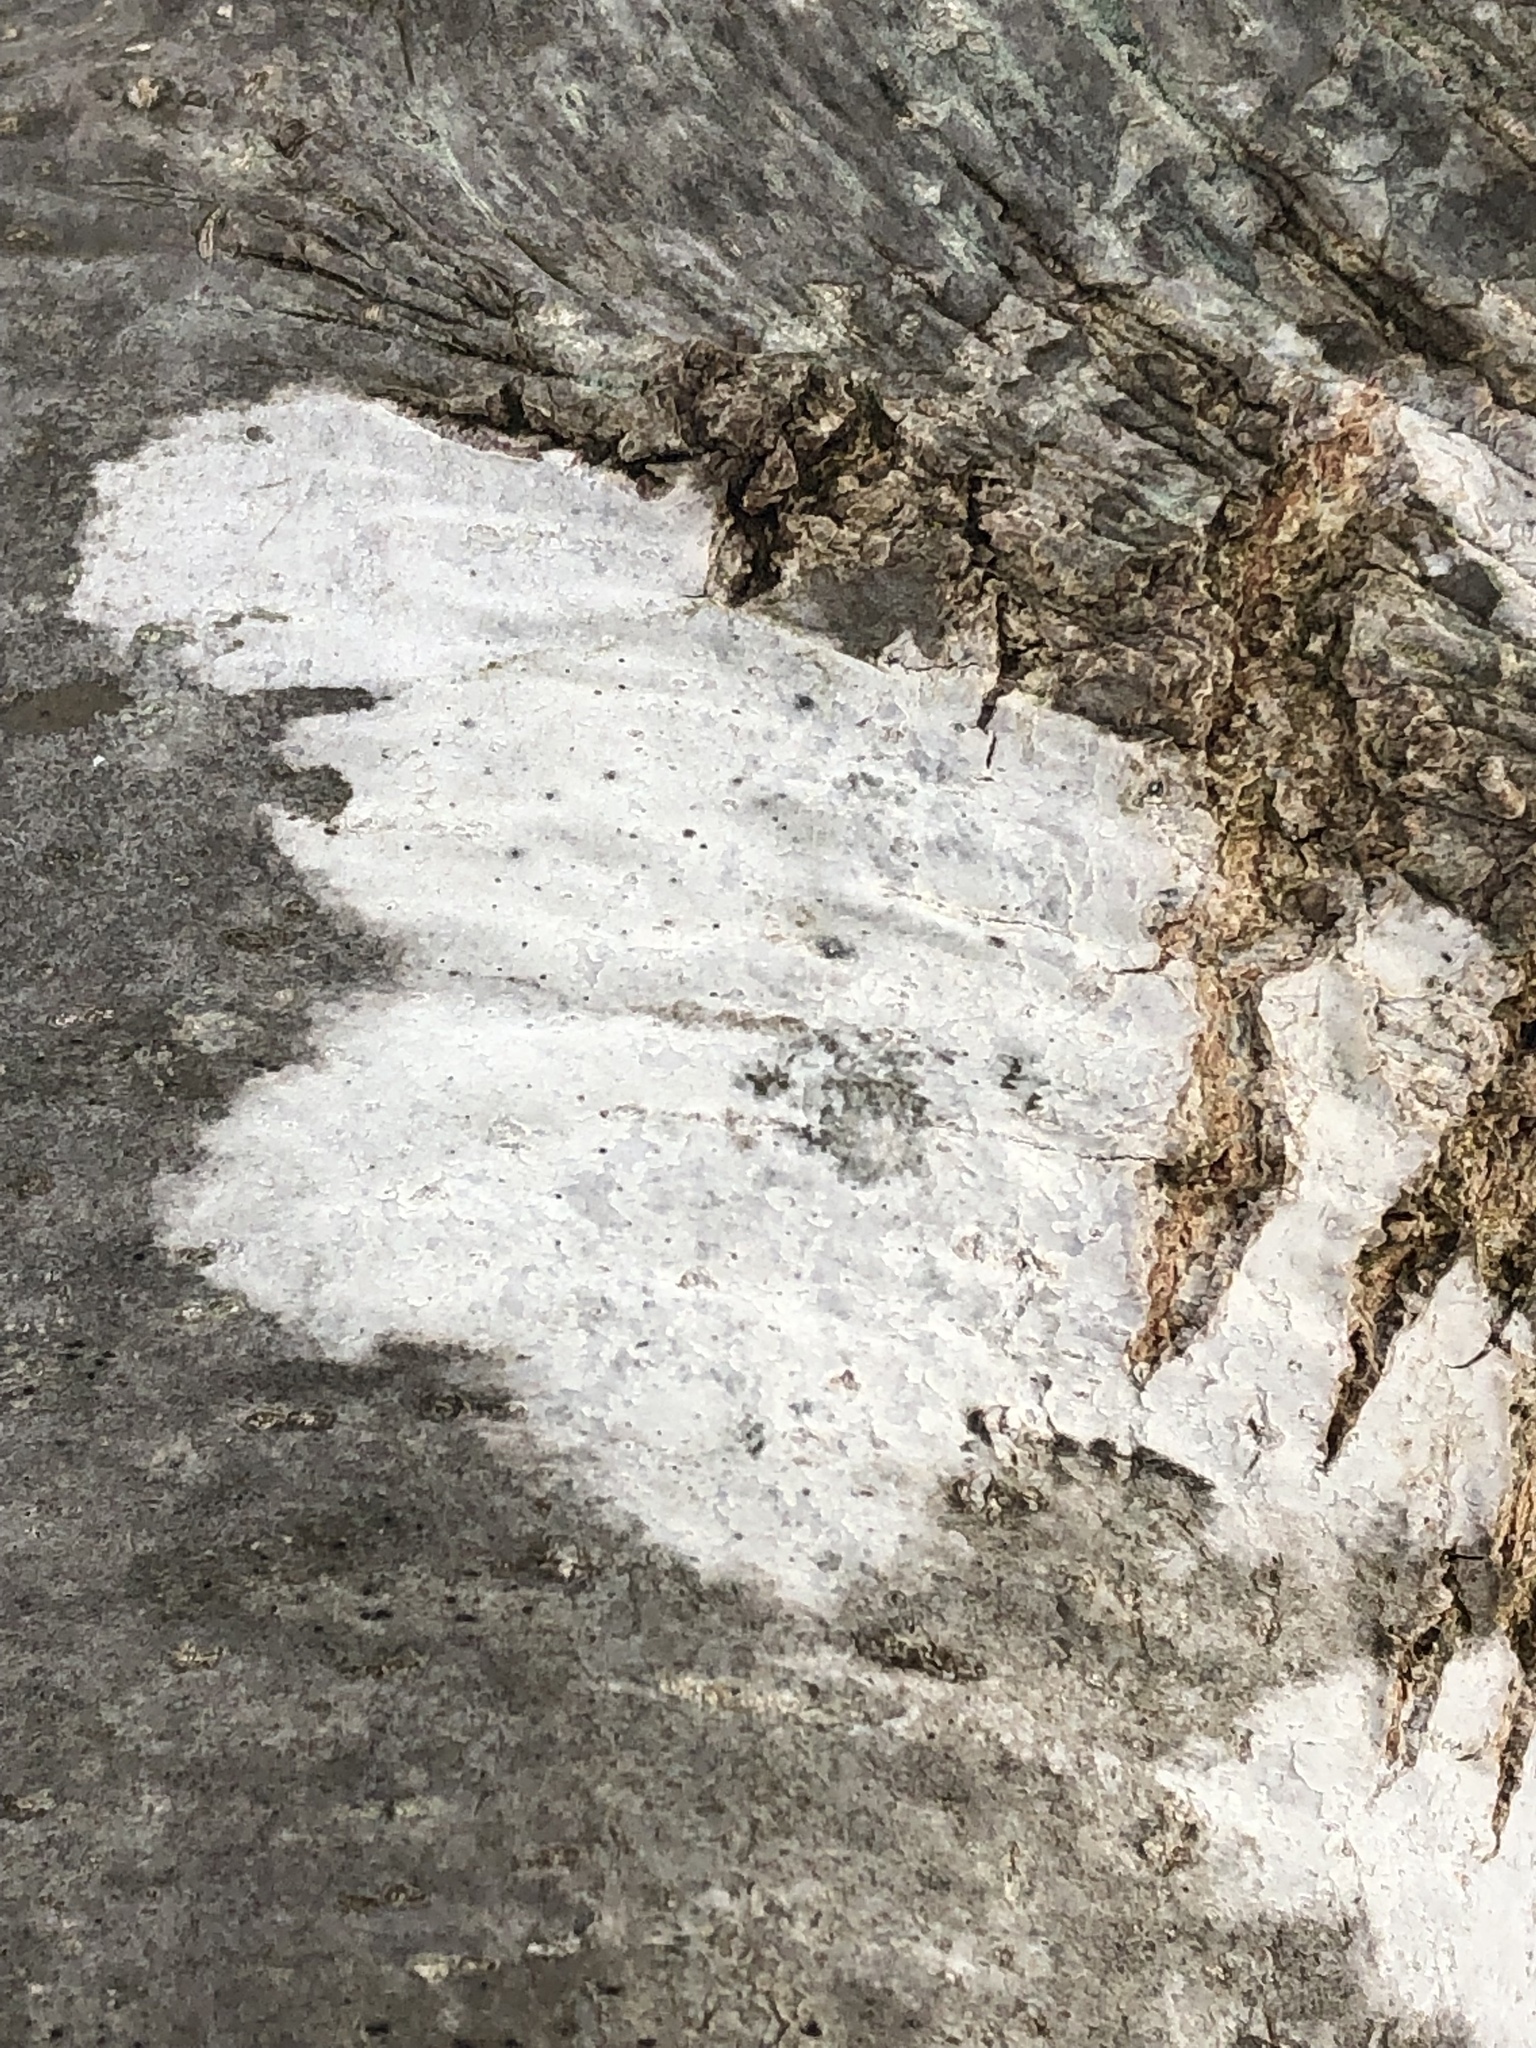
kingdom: Fungi
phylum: Ascomycota
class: Lecanoromycetes
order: Ostropales
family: Phlyctidaceae
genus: Phlyctis
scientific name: Phlyctis argena
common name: Whitewash lichen
